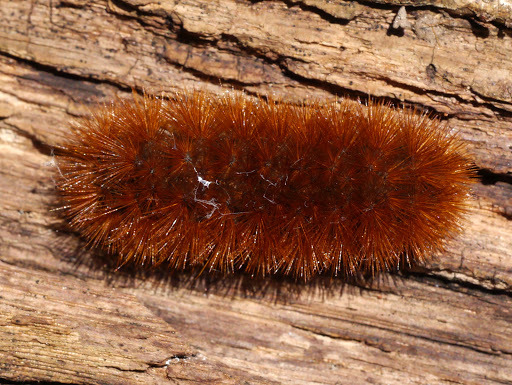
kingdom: Animalia
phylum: Arthropoda
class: Insecta
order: Lepidoptera
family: Erebidae
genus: Pyrrharctia
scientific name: Pyrrharctia isabella
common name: Isabella tiger moth
